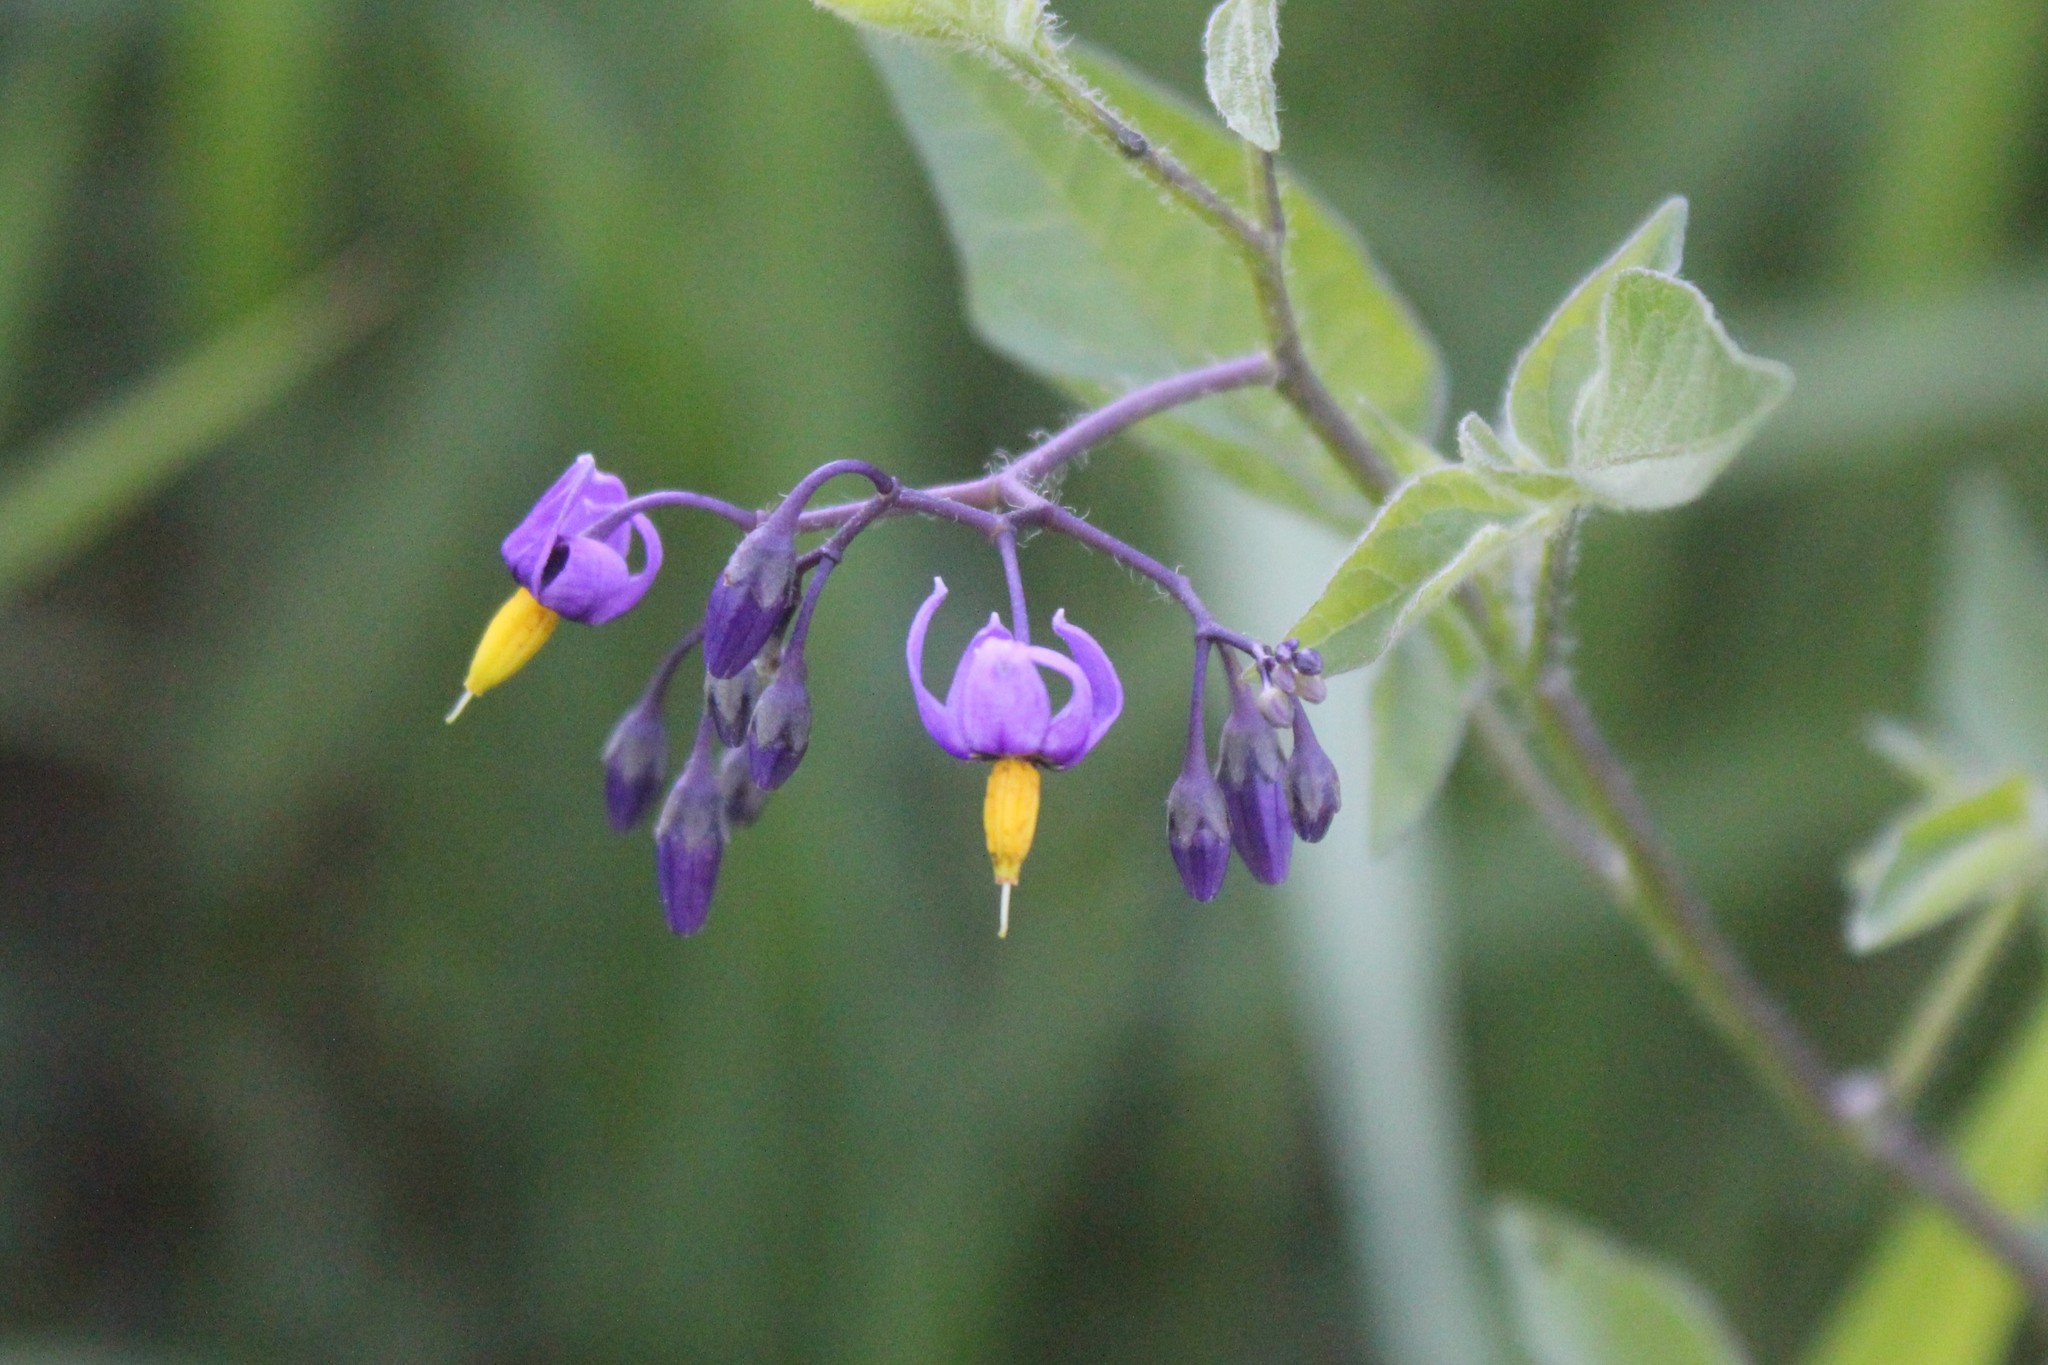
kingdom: Plantae
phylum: Tracheophyta
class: Magnoliopsida
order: Solanales
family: Solanaceae
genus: Solanum
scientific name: Solanum dulcamara
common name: Climbing nightshade
